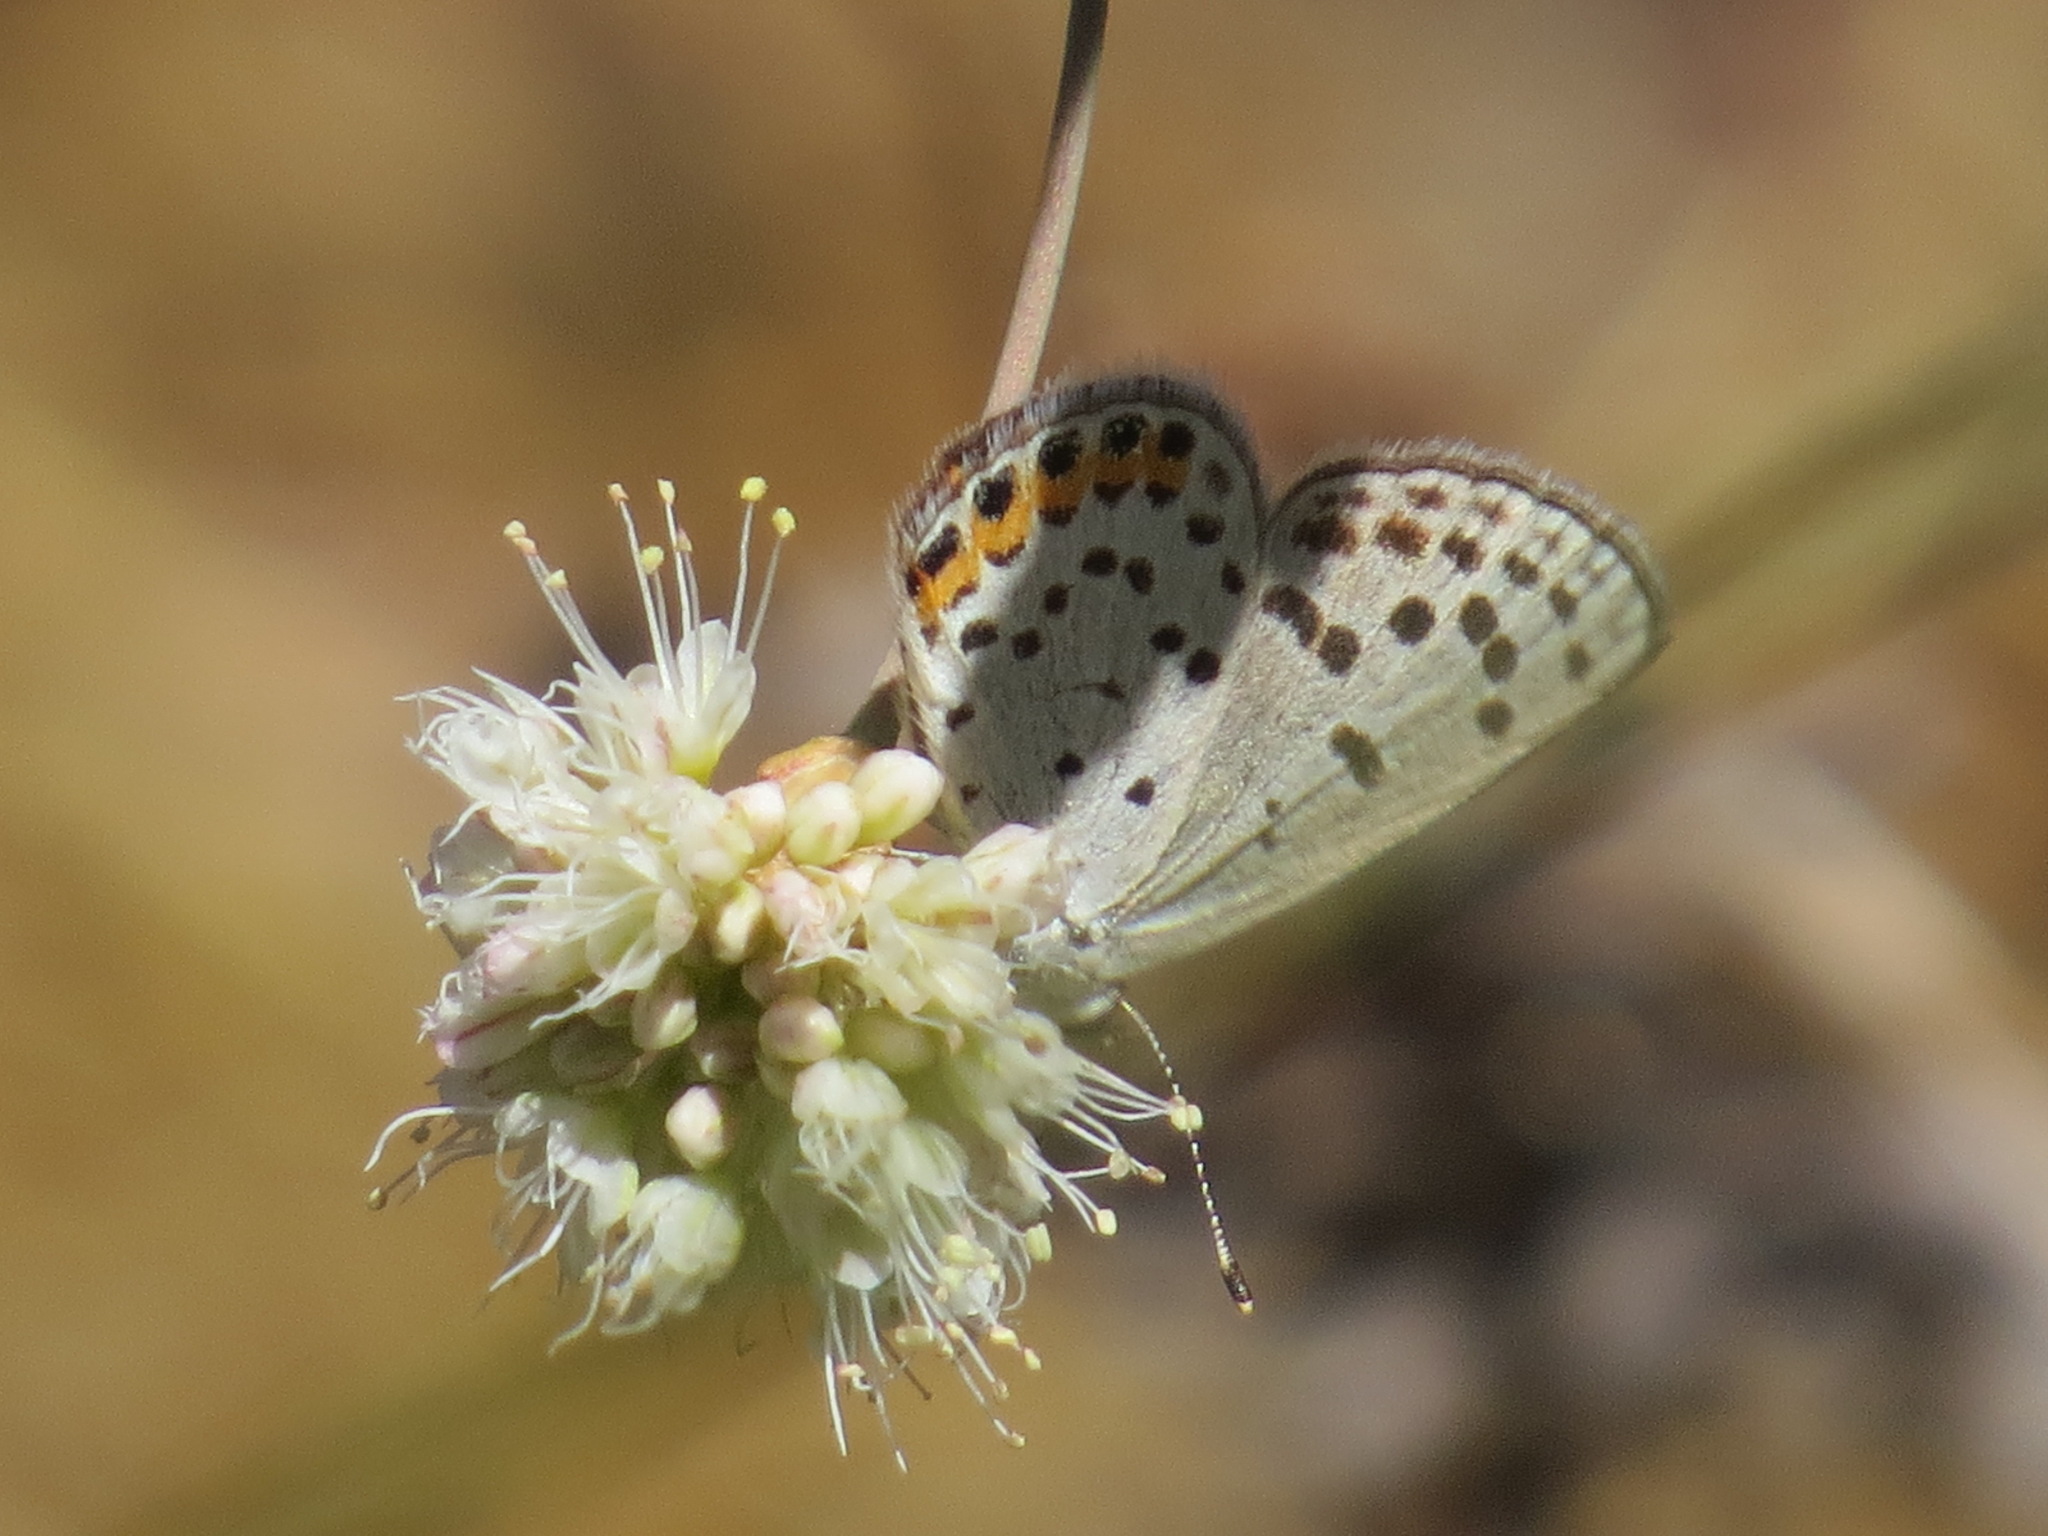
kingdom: Animalia
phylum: Arthropoda
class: Insecta
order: Lepidoptera
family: Lycaenidae
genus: Icaricia
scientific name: Icaricia acmon
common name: Acmon blue
